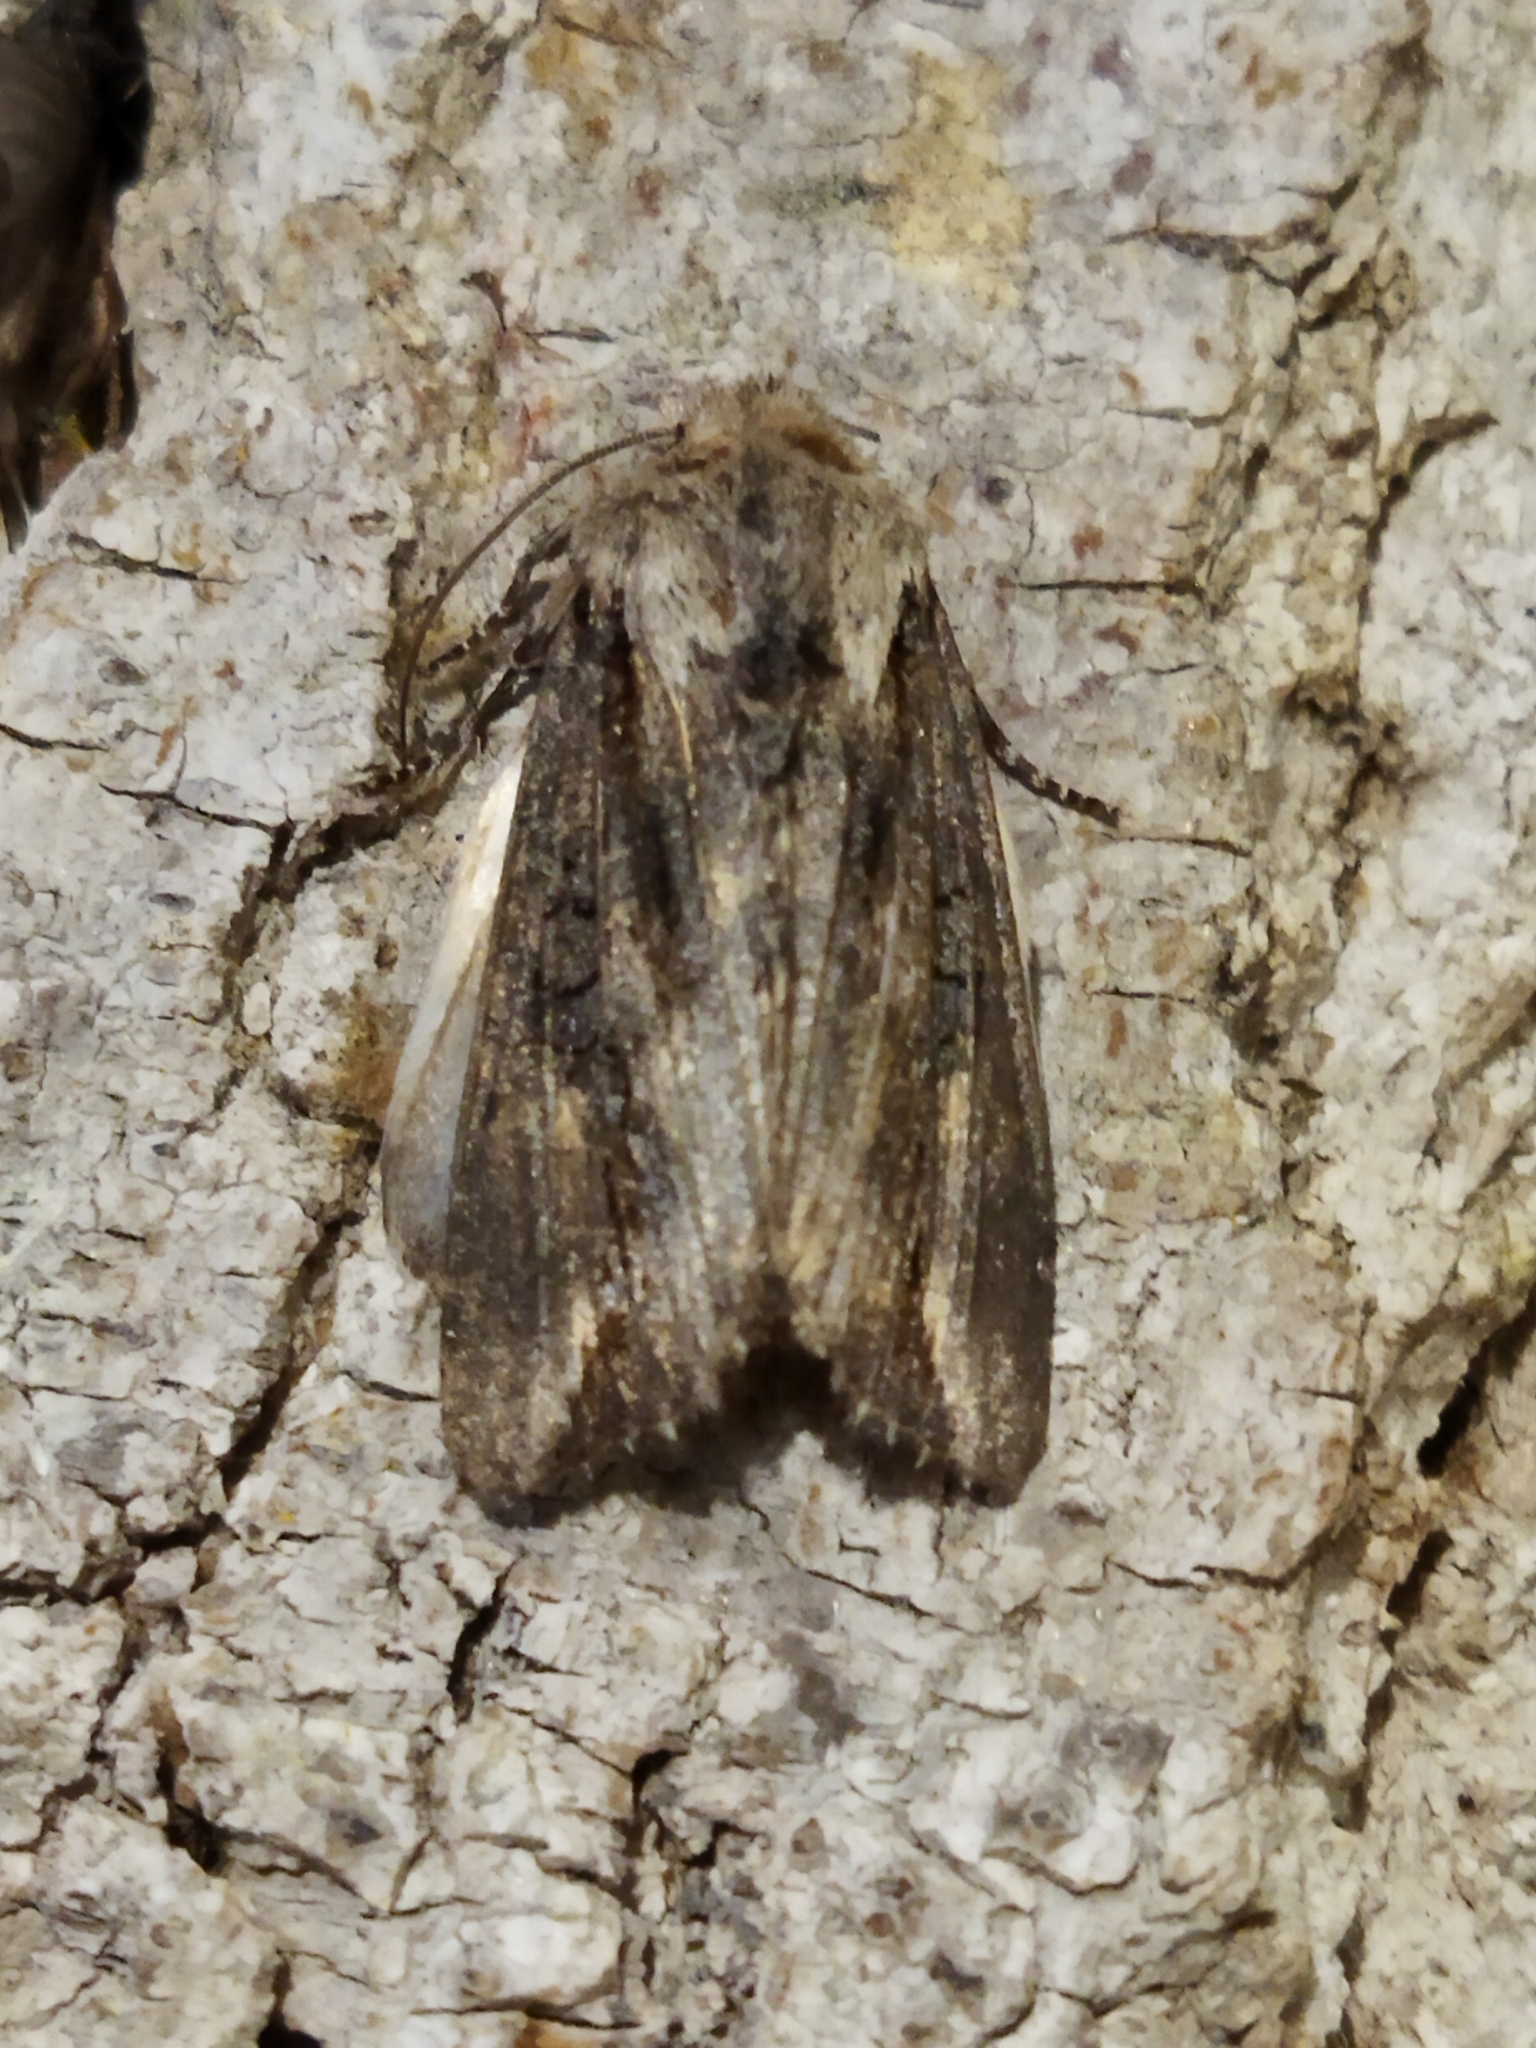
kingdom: Animalia
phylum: Arthropoda
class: Insecta
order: Lepidoptera
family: Noctuidae
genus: Egira
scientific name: Egira conspicillaris
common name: Silver cloud
